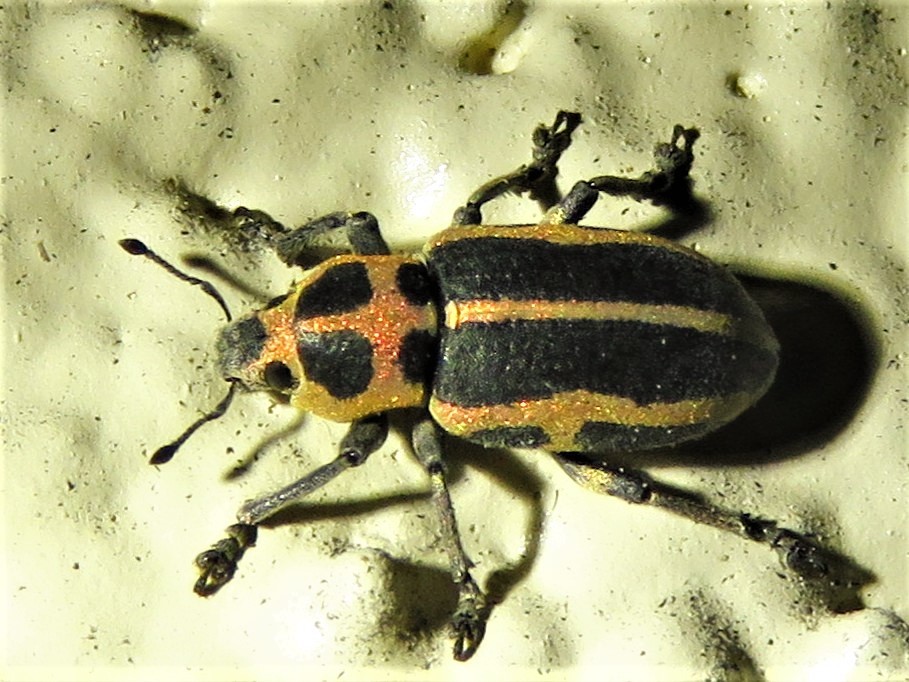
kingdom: Animalia
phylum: Arthropoda
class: Insecta
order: Coleoptera
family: Curculionidae
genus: Eudiagogus
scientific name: Eudiagogus pulcher
